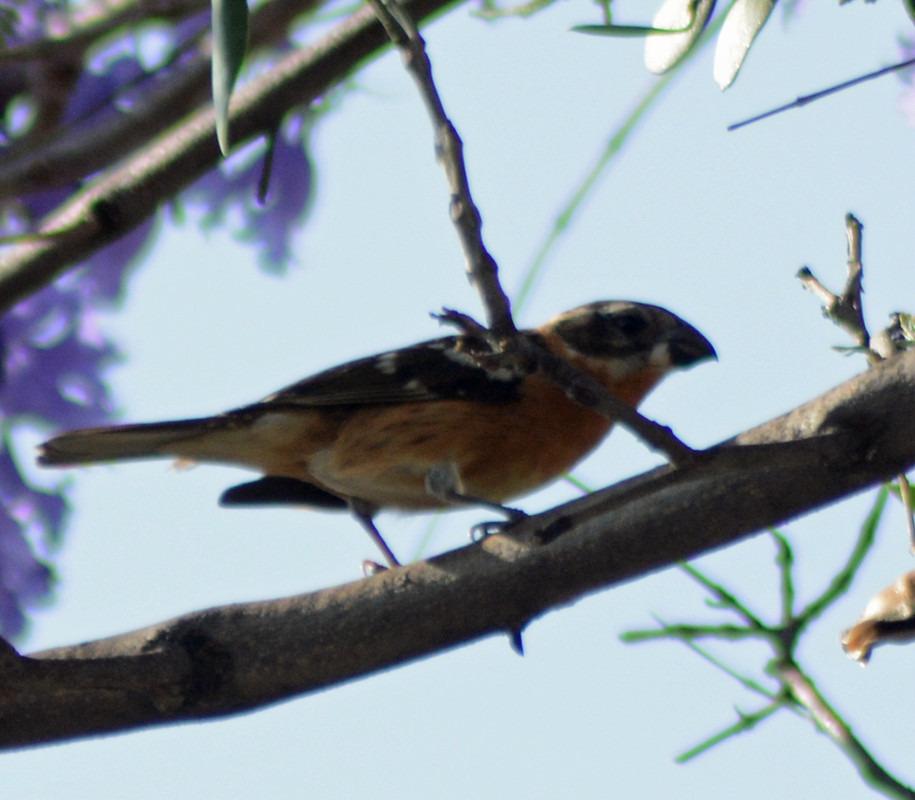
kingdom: Animalia
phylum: Chordata
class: Aves
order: Passeriformes
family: Cardinalidae
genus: Pheucticus
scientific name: Pheucticus melanocephalus
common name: Black-headed grosbeak
